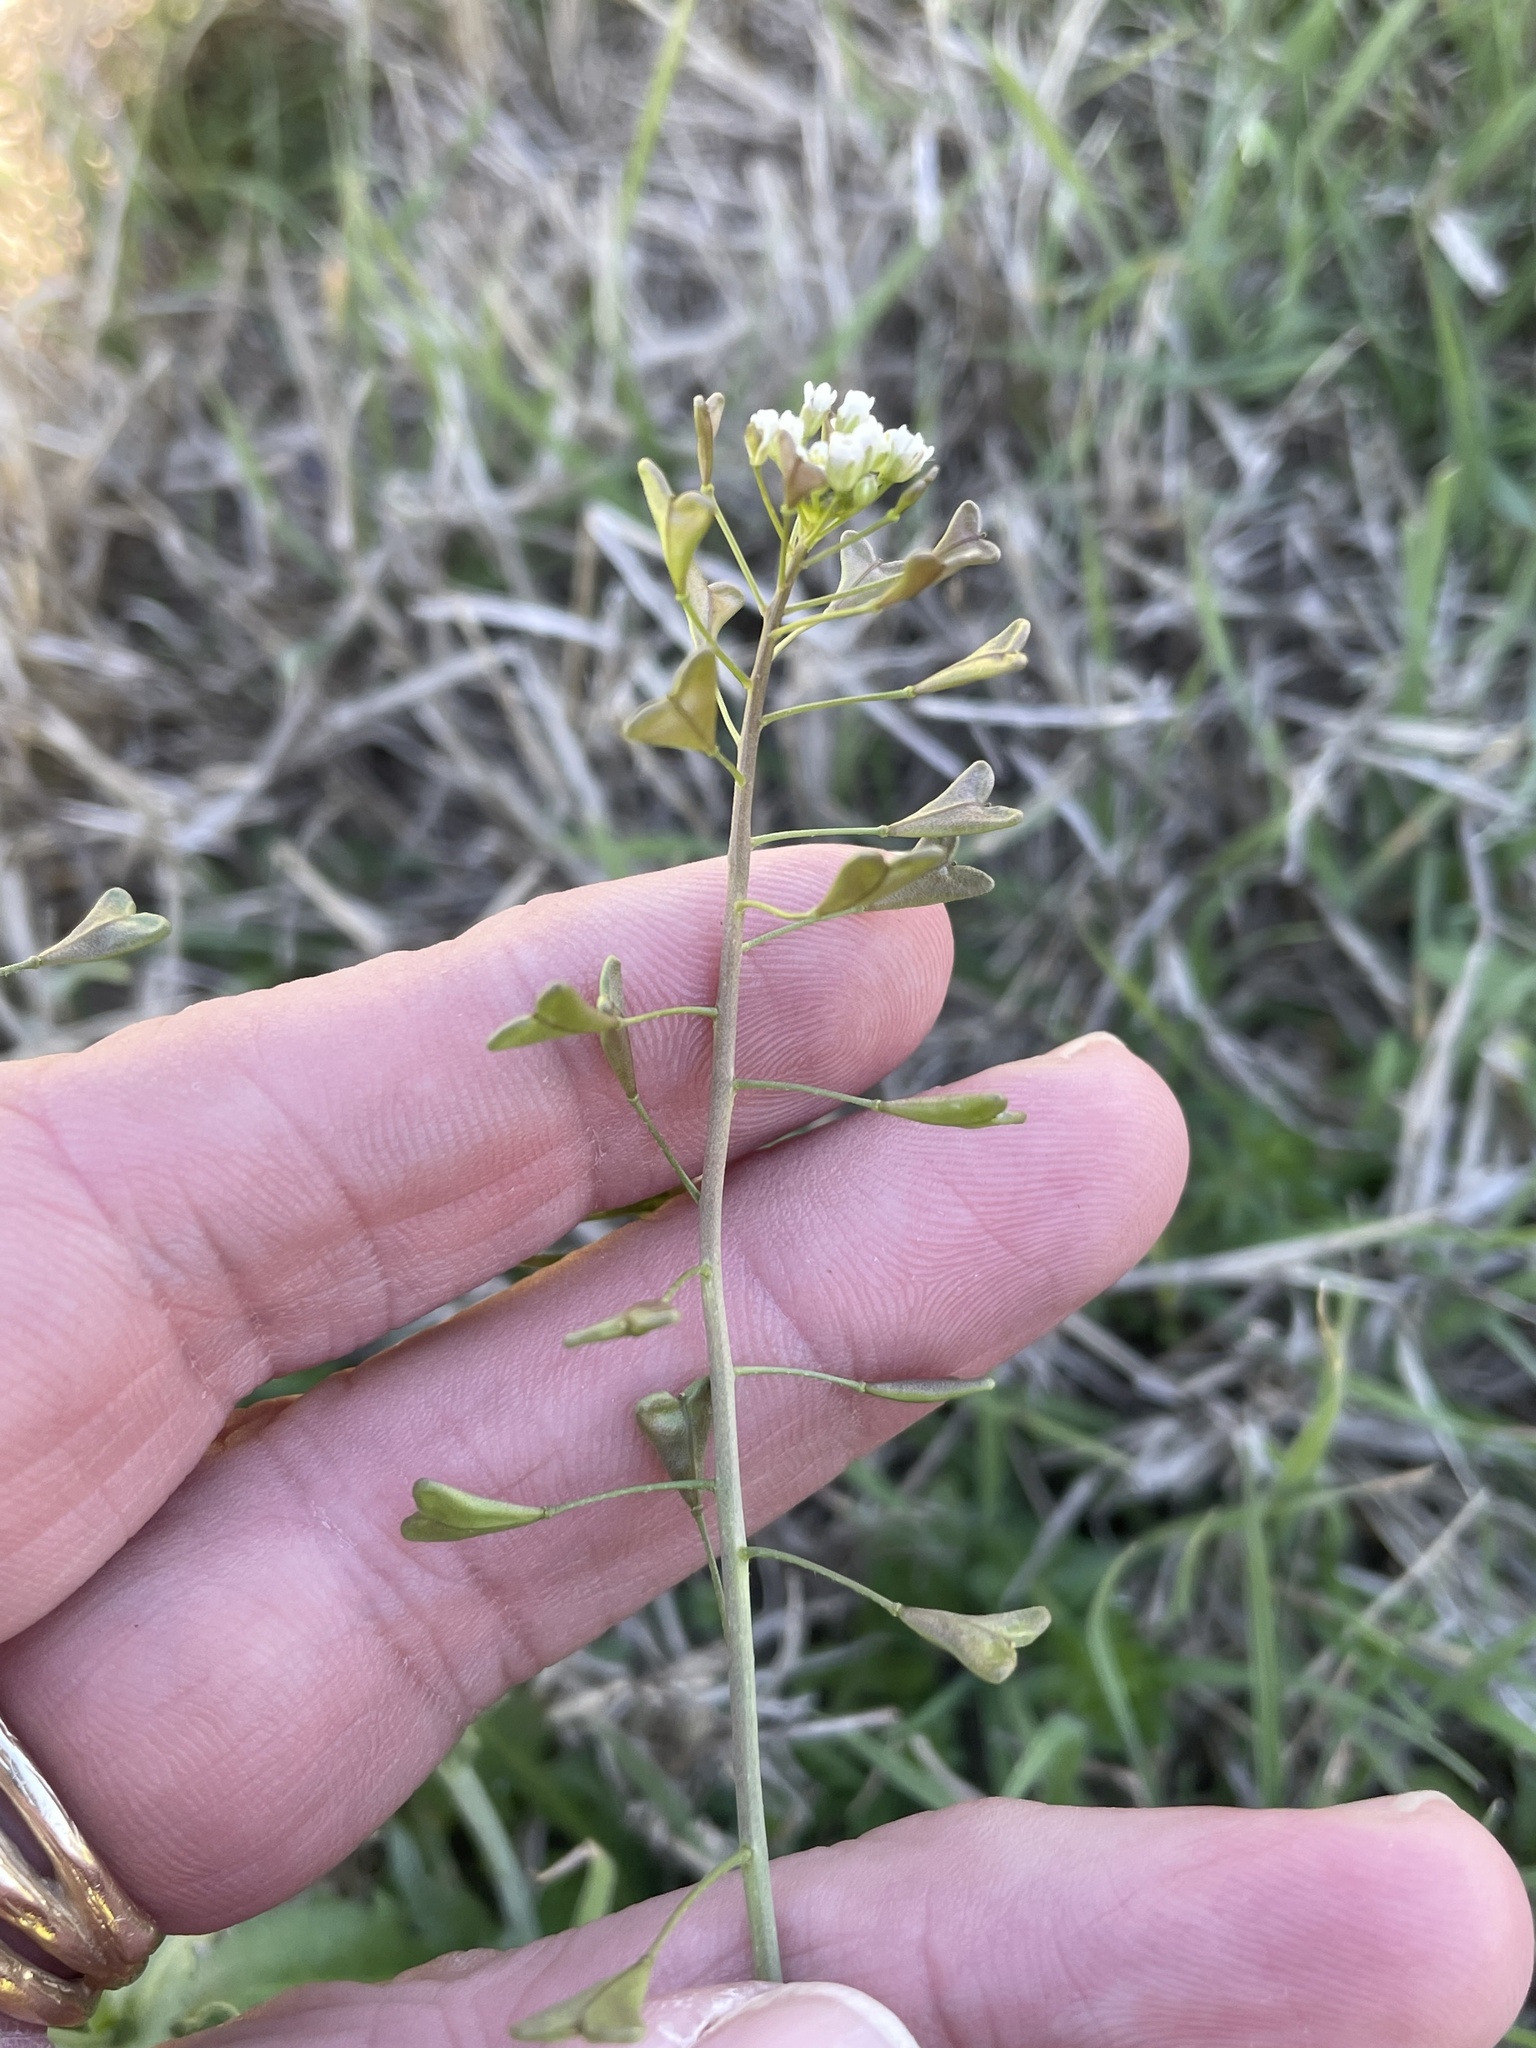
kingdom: Plantae
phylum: Tracheophyta
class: Magnoliopsida
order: Brassicales
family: Brassicaceae
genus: Capsella
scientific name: Capsella bursa-pastoris
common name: Shepherd's purse
